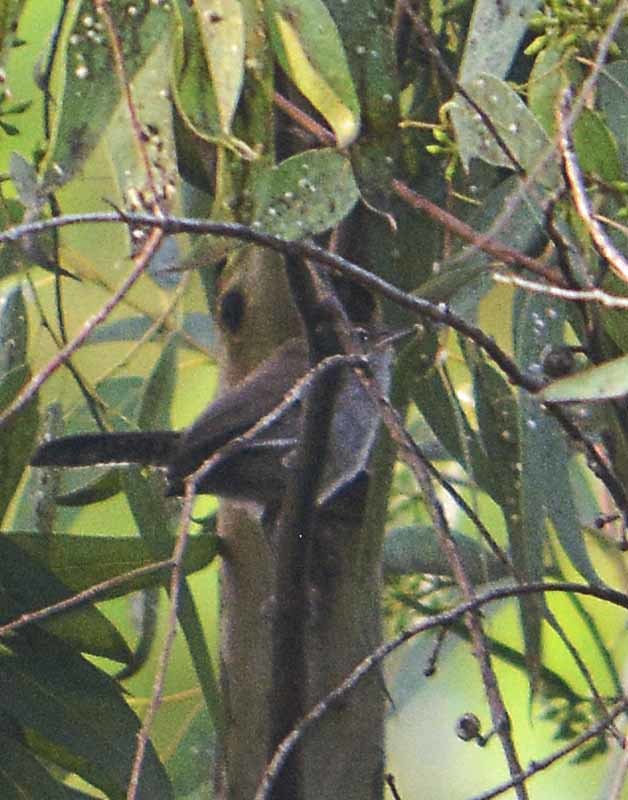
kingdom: Animalia
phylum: Chordata
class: Aves
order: Passeriformes
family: Troglodytidae
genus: Thryomanes
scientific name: Thryomanes bewickii
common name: Bewick's wren
